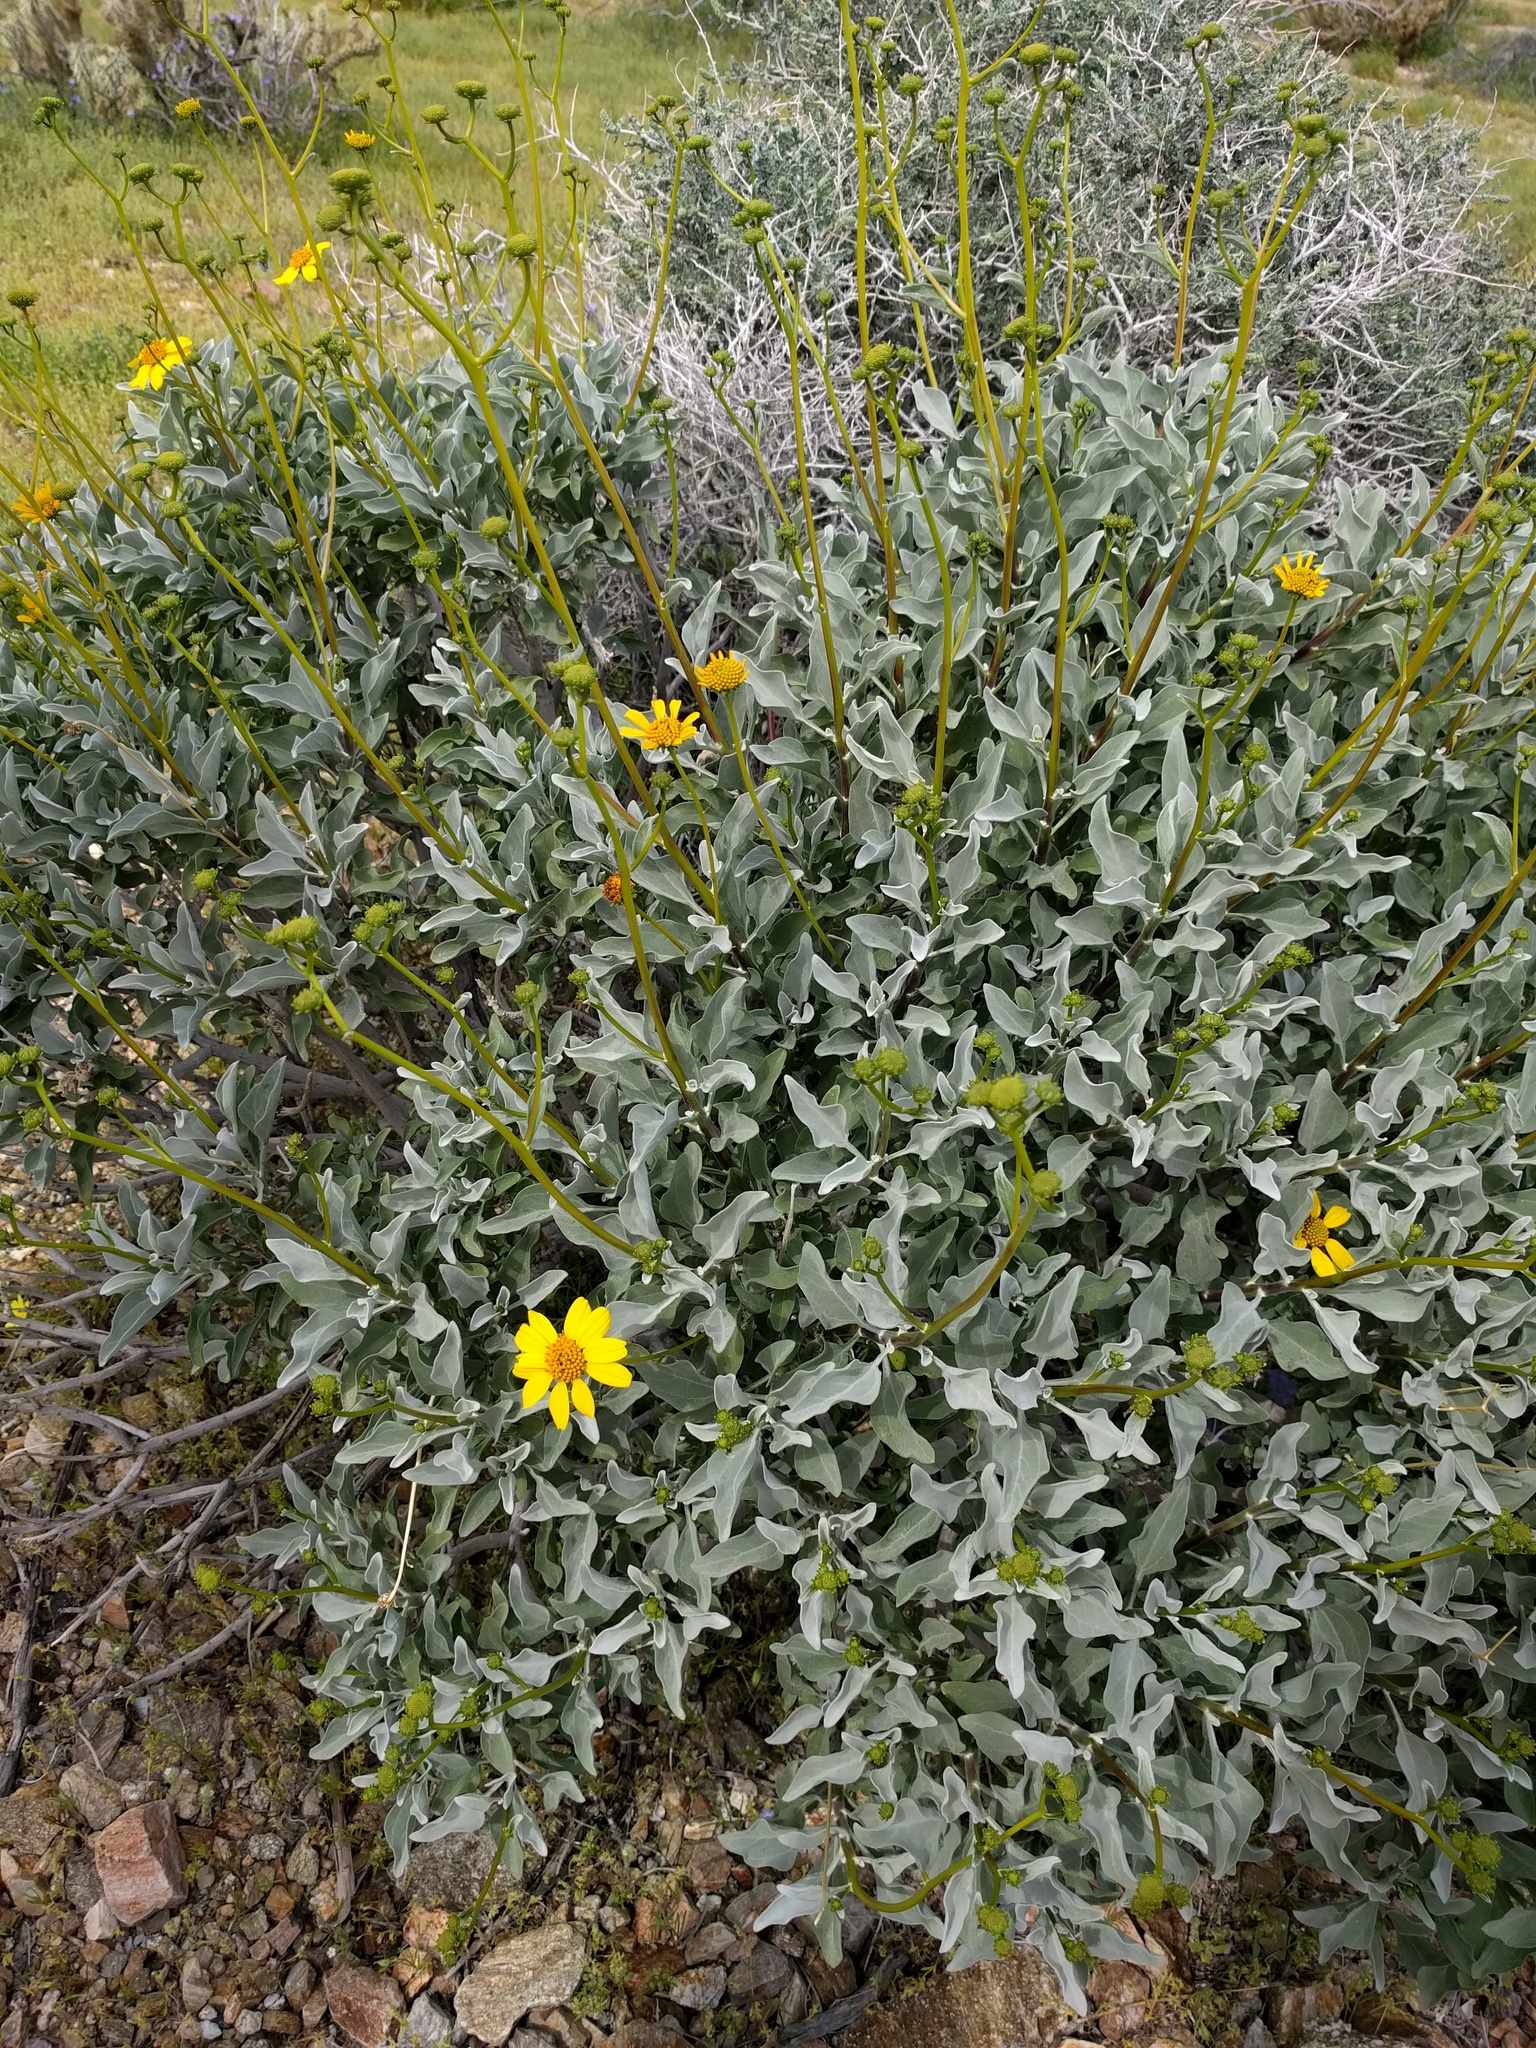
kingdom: Plantae
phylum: Tracheophyta
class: Magnoliopsida
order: Asterales
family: Asteraceae
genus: Encelia
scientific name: Encelia farinosa
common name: Brittlebush
